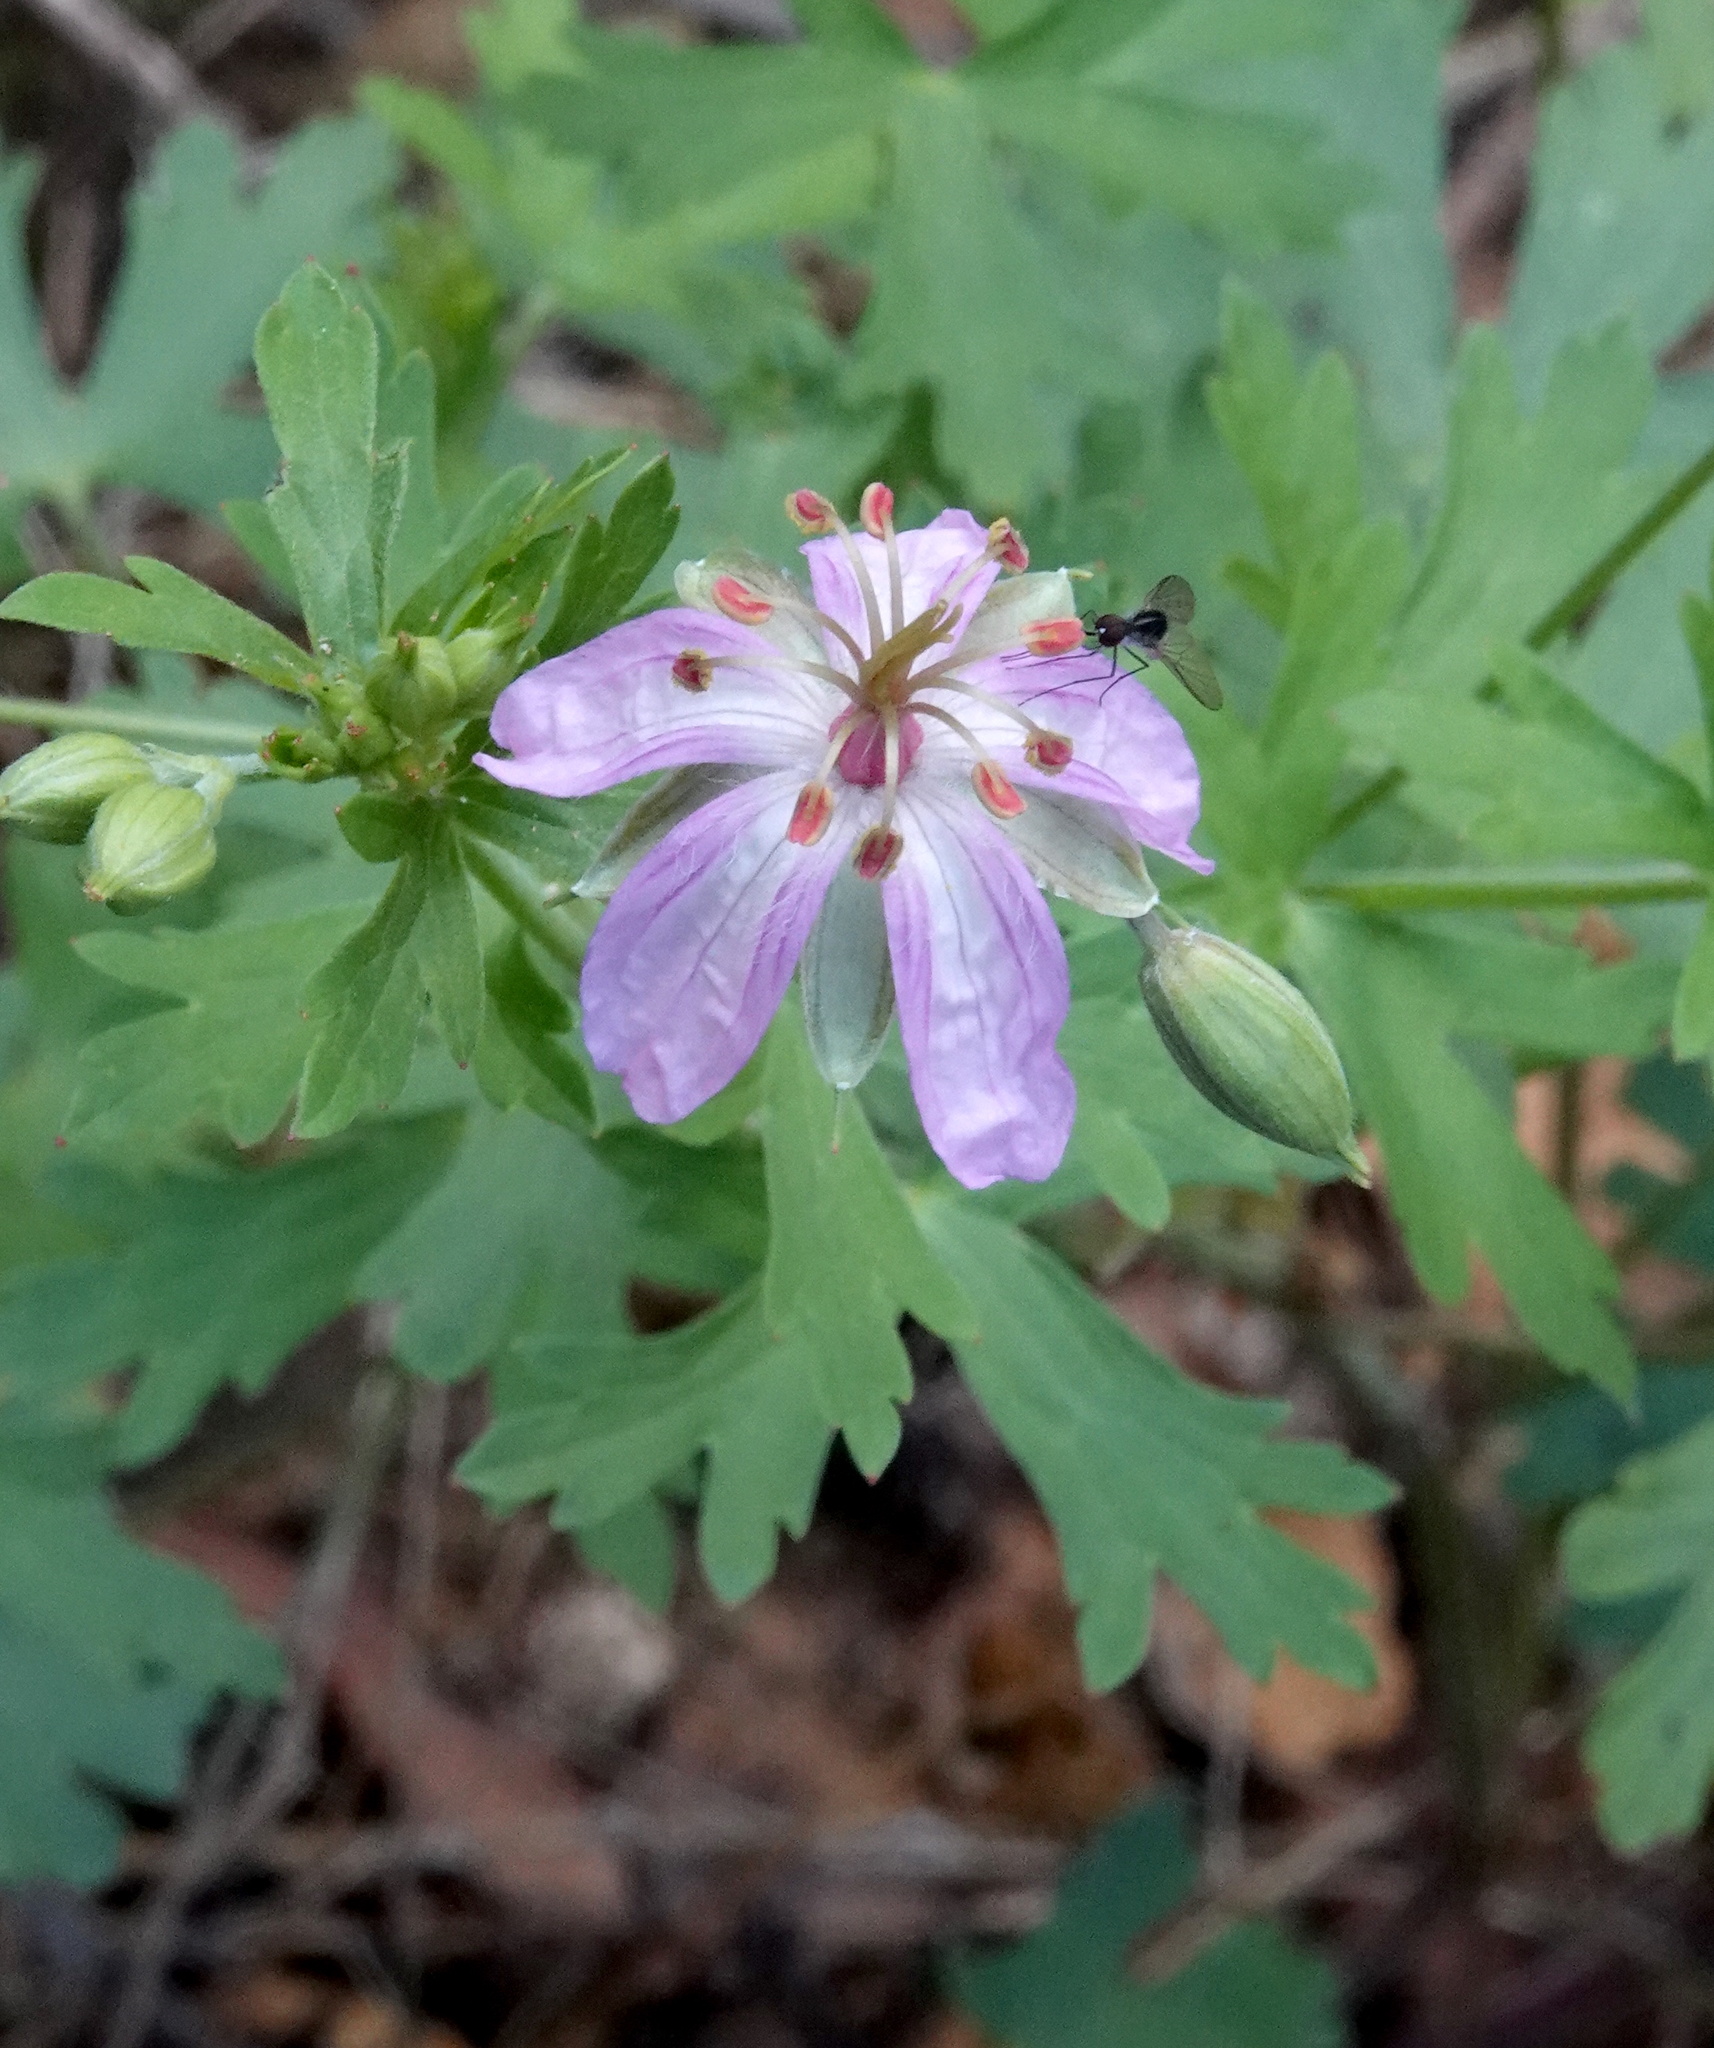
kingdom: Plantae
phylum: Tracheophyta
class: Magnoliopsida
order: Geraniales
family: Geraniaceae
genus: Geranium
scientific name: Geranium caespitosum
